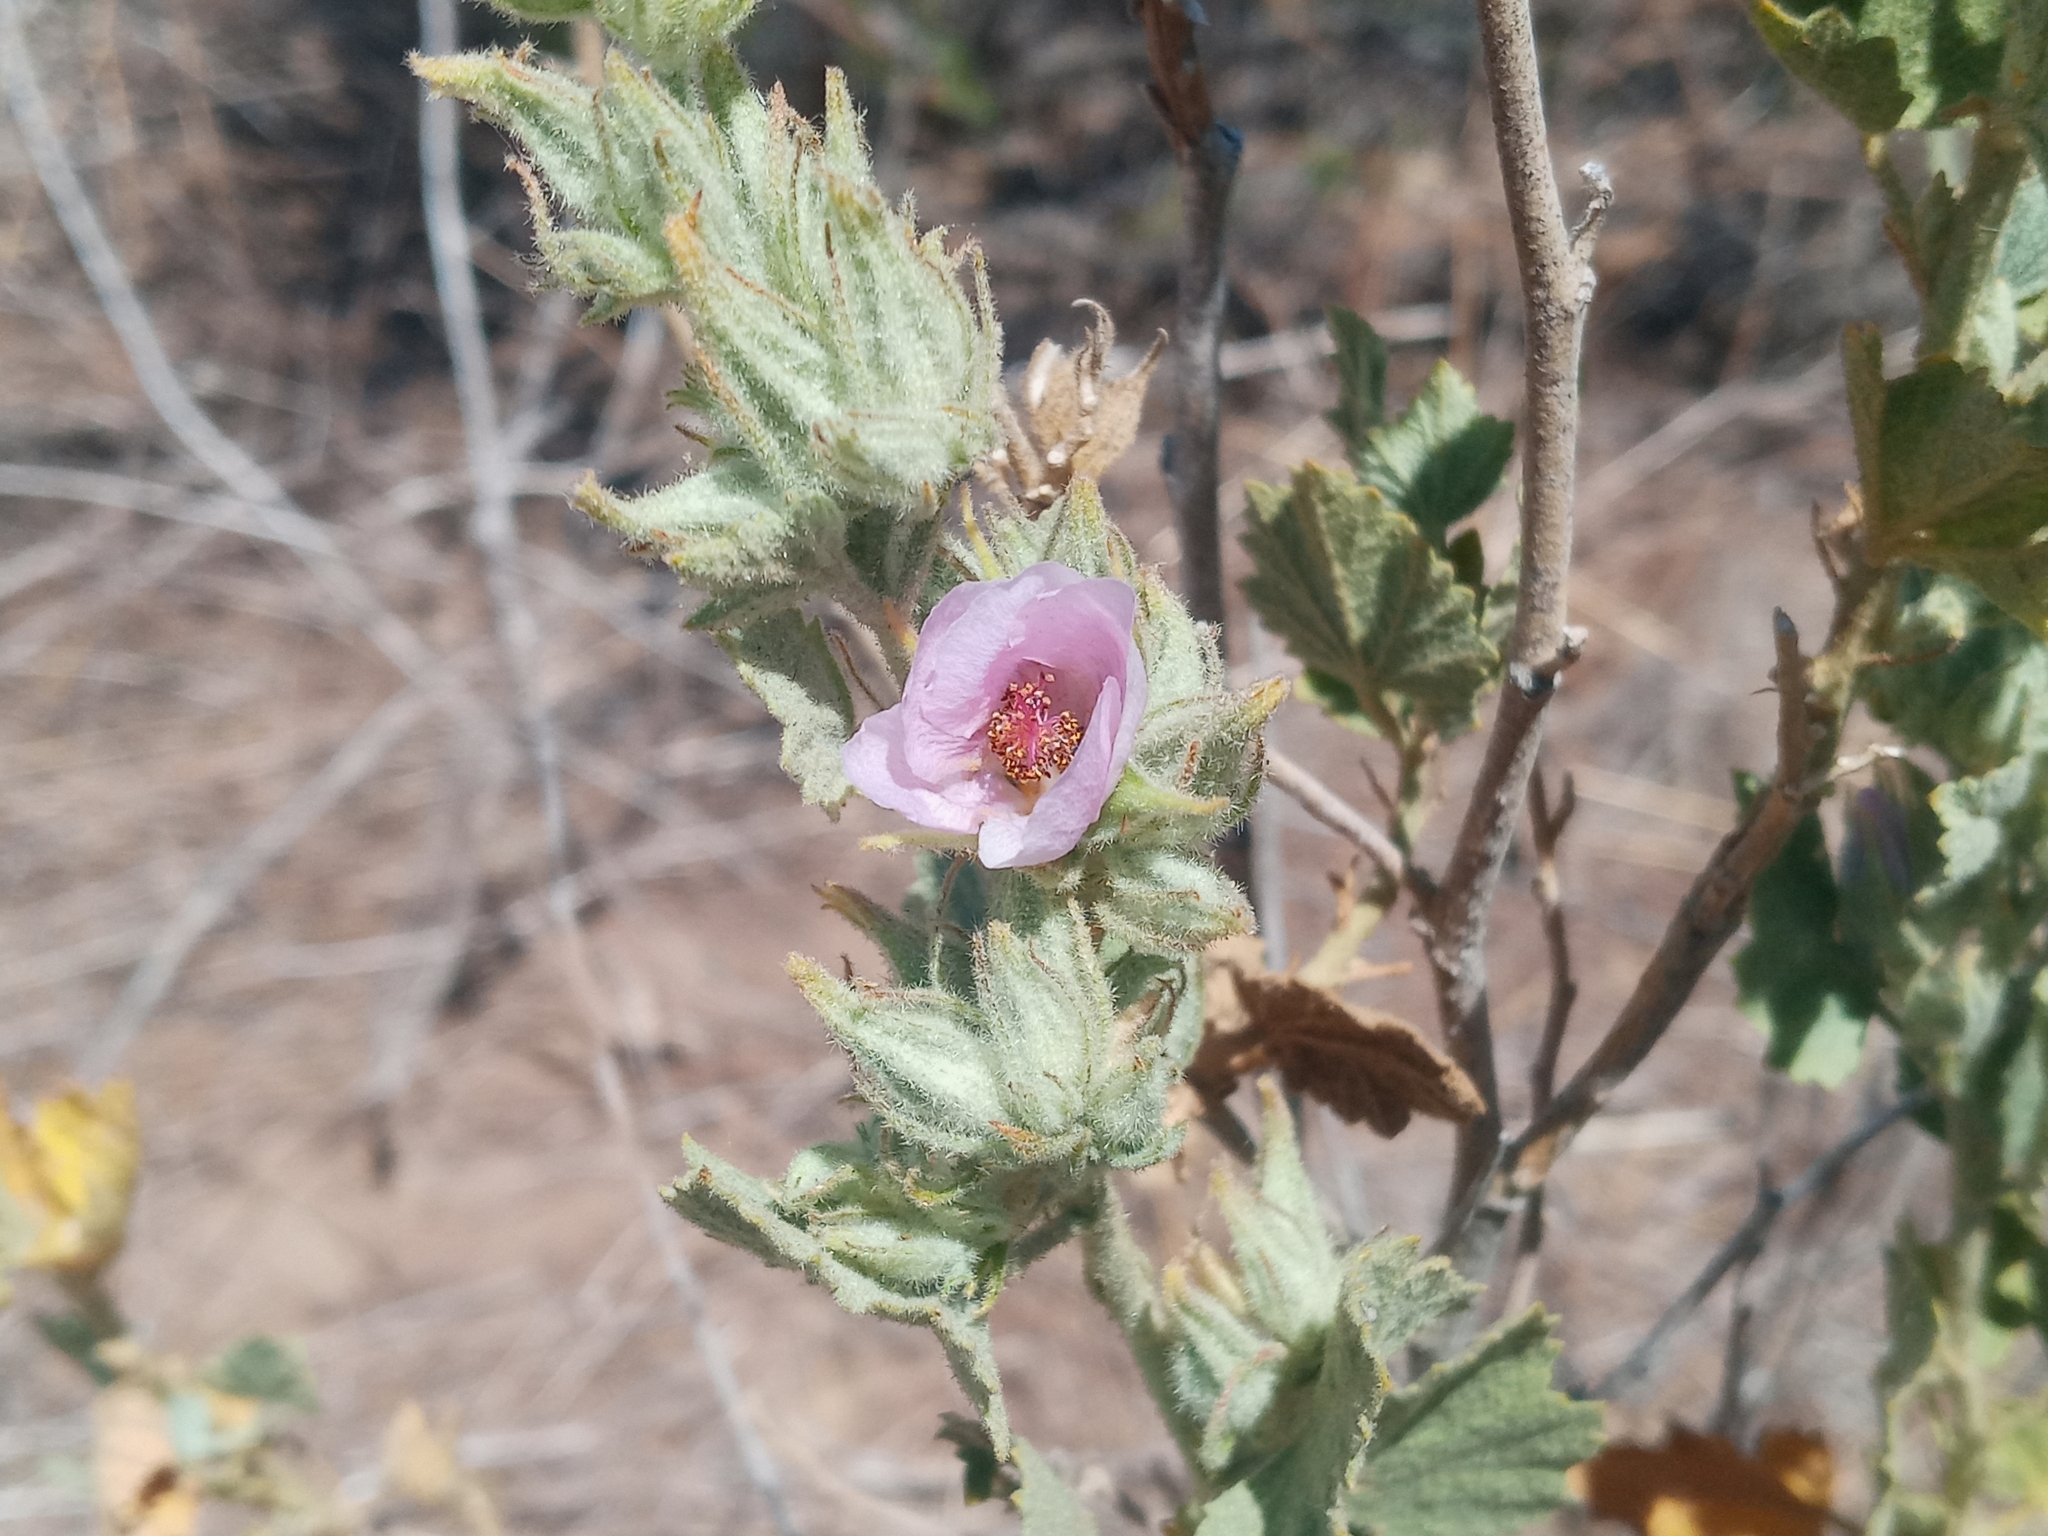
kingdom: Plantae
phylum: Tracheophyta
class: Magnoliopsida
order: Malvales
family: Malvaceae
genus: Malacothamnus
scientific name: Malacothamnus marrubioides
